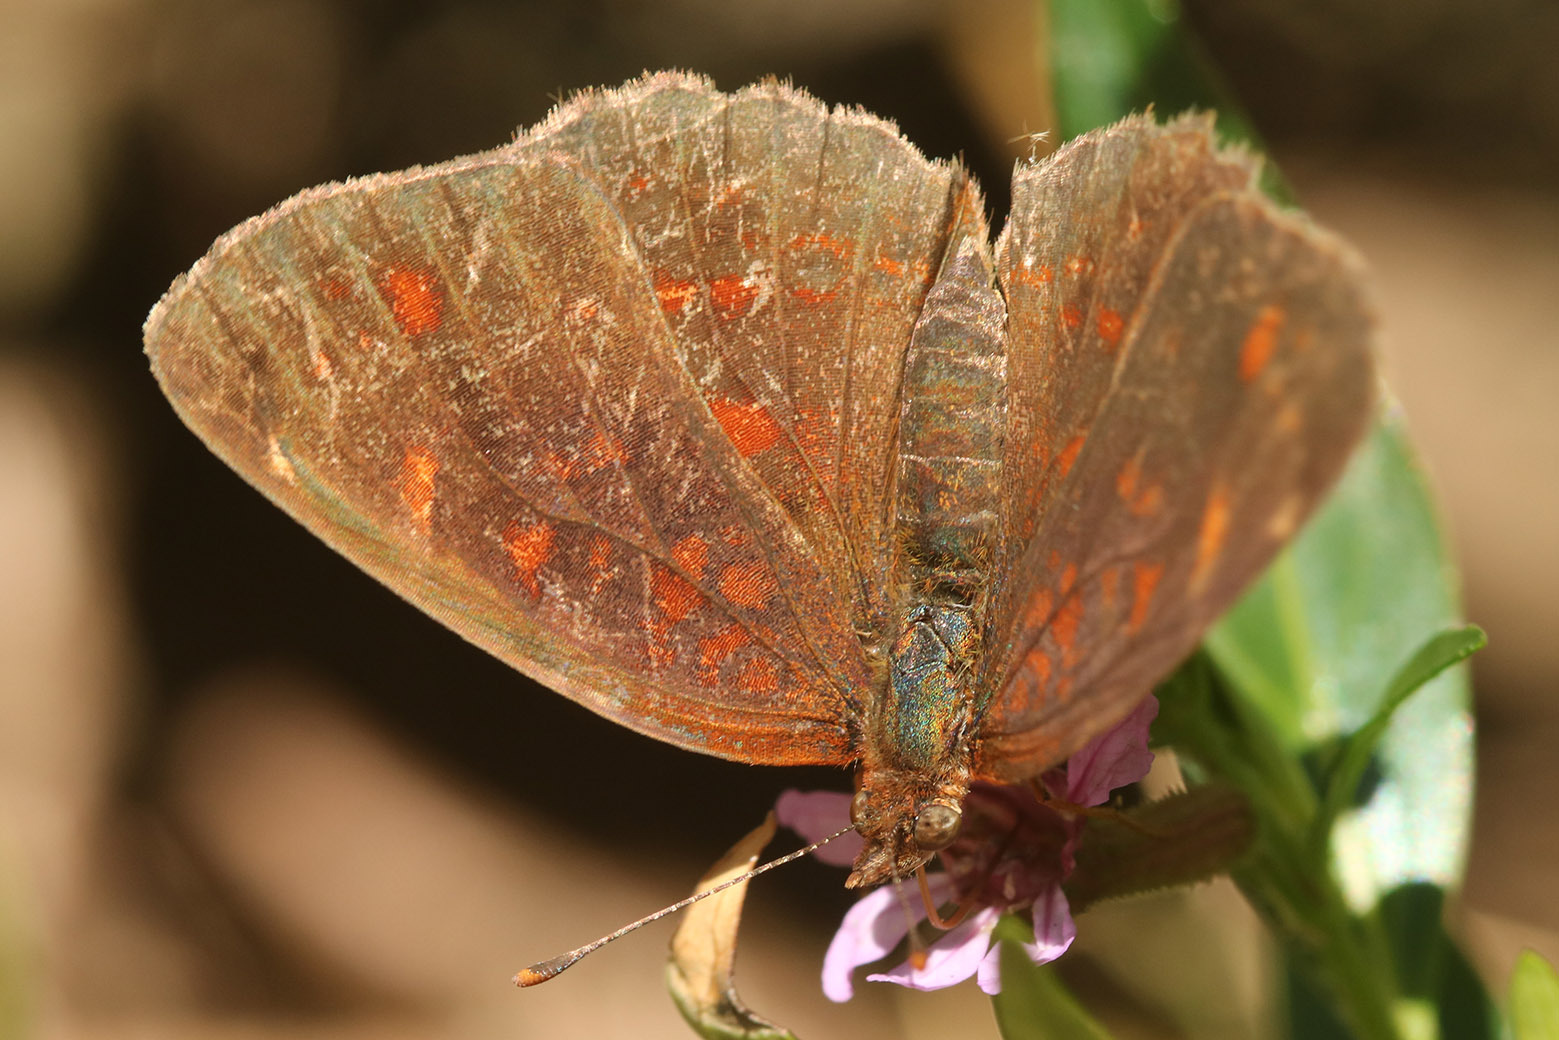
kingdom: Animalia
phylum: Arthropoda
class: Insecta
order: Lepidoptera
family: Nymphalidae
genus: Ortilia
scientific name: Ortilia velica
